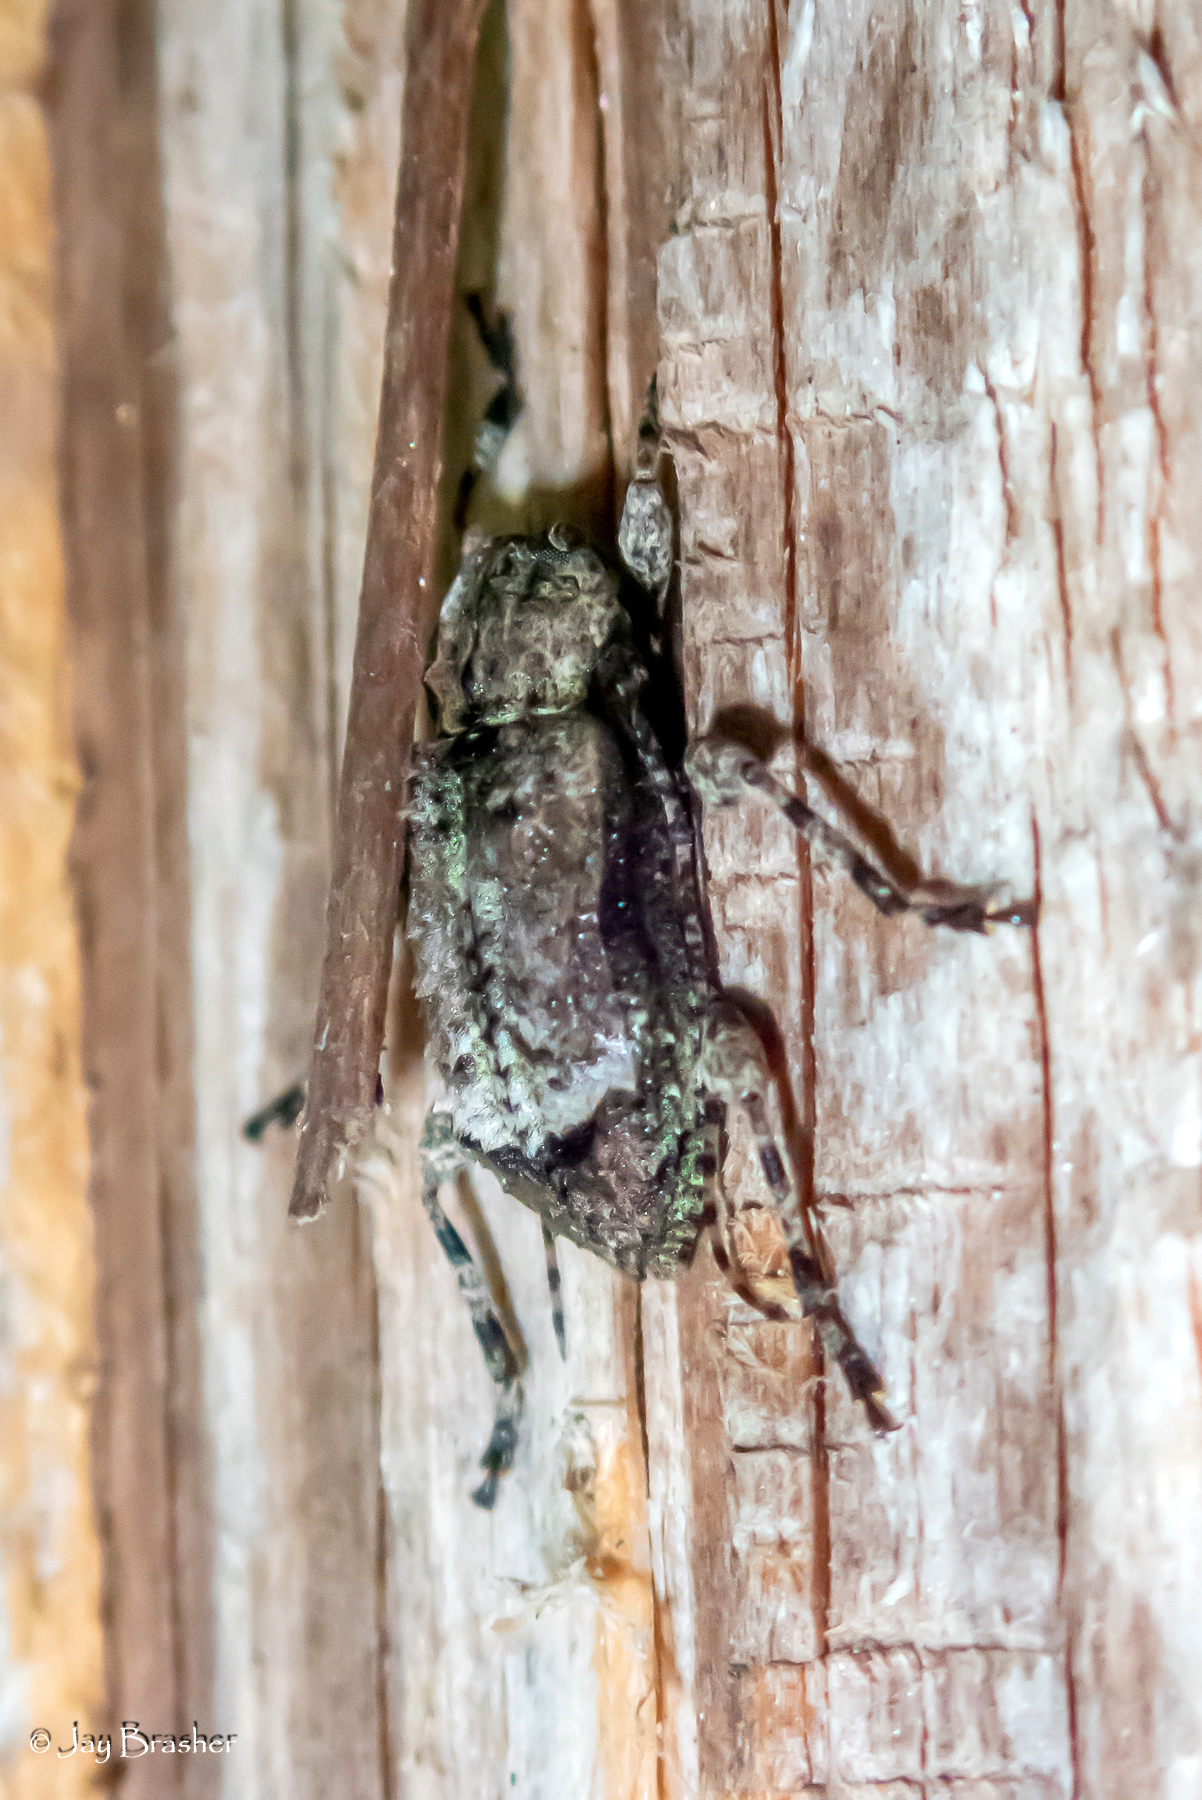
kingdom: Animalia
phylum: Arthropoda
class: Insecta
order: Coleoptera
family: Cerambycidae
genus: Leptostylus
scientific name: Leptostylus transversus
